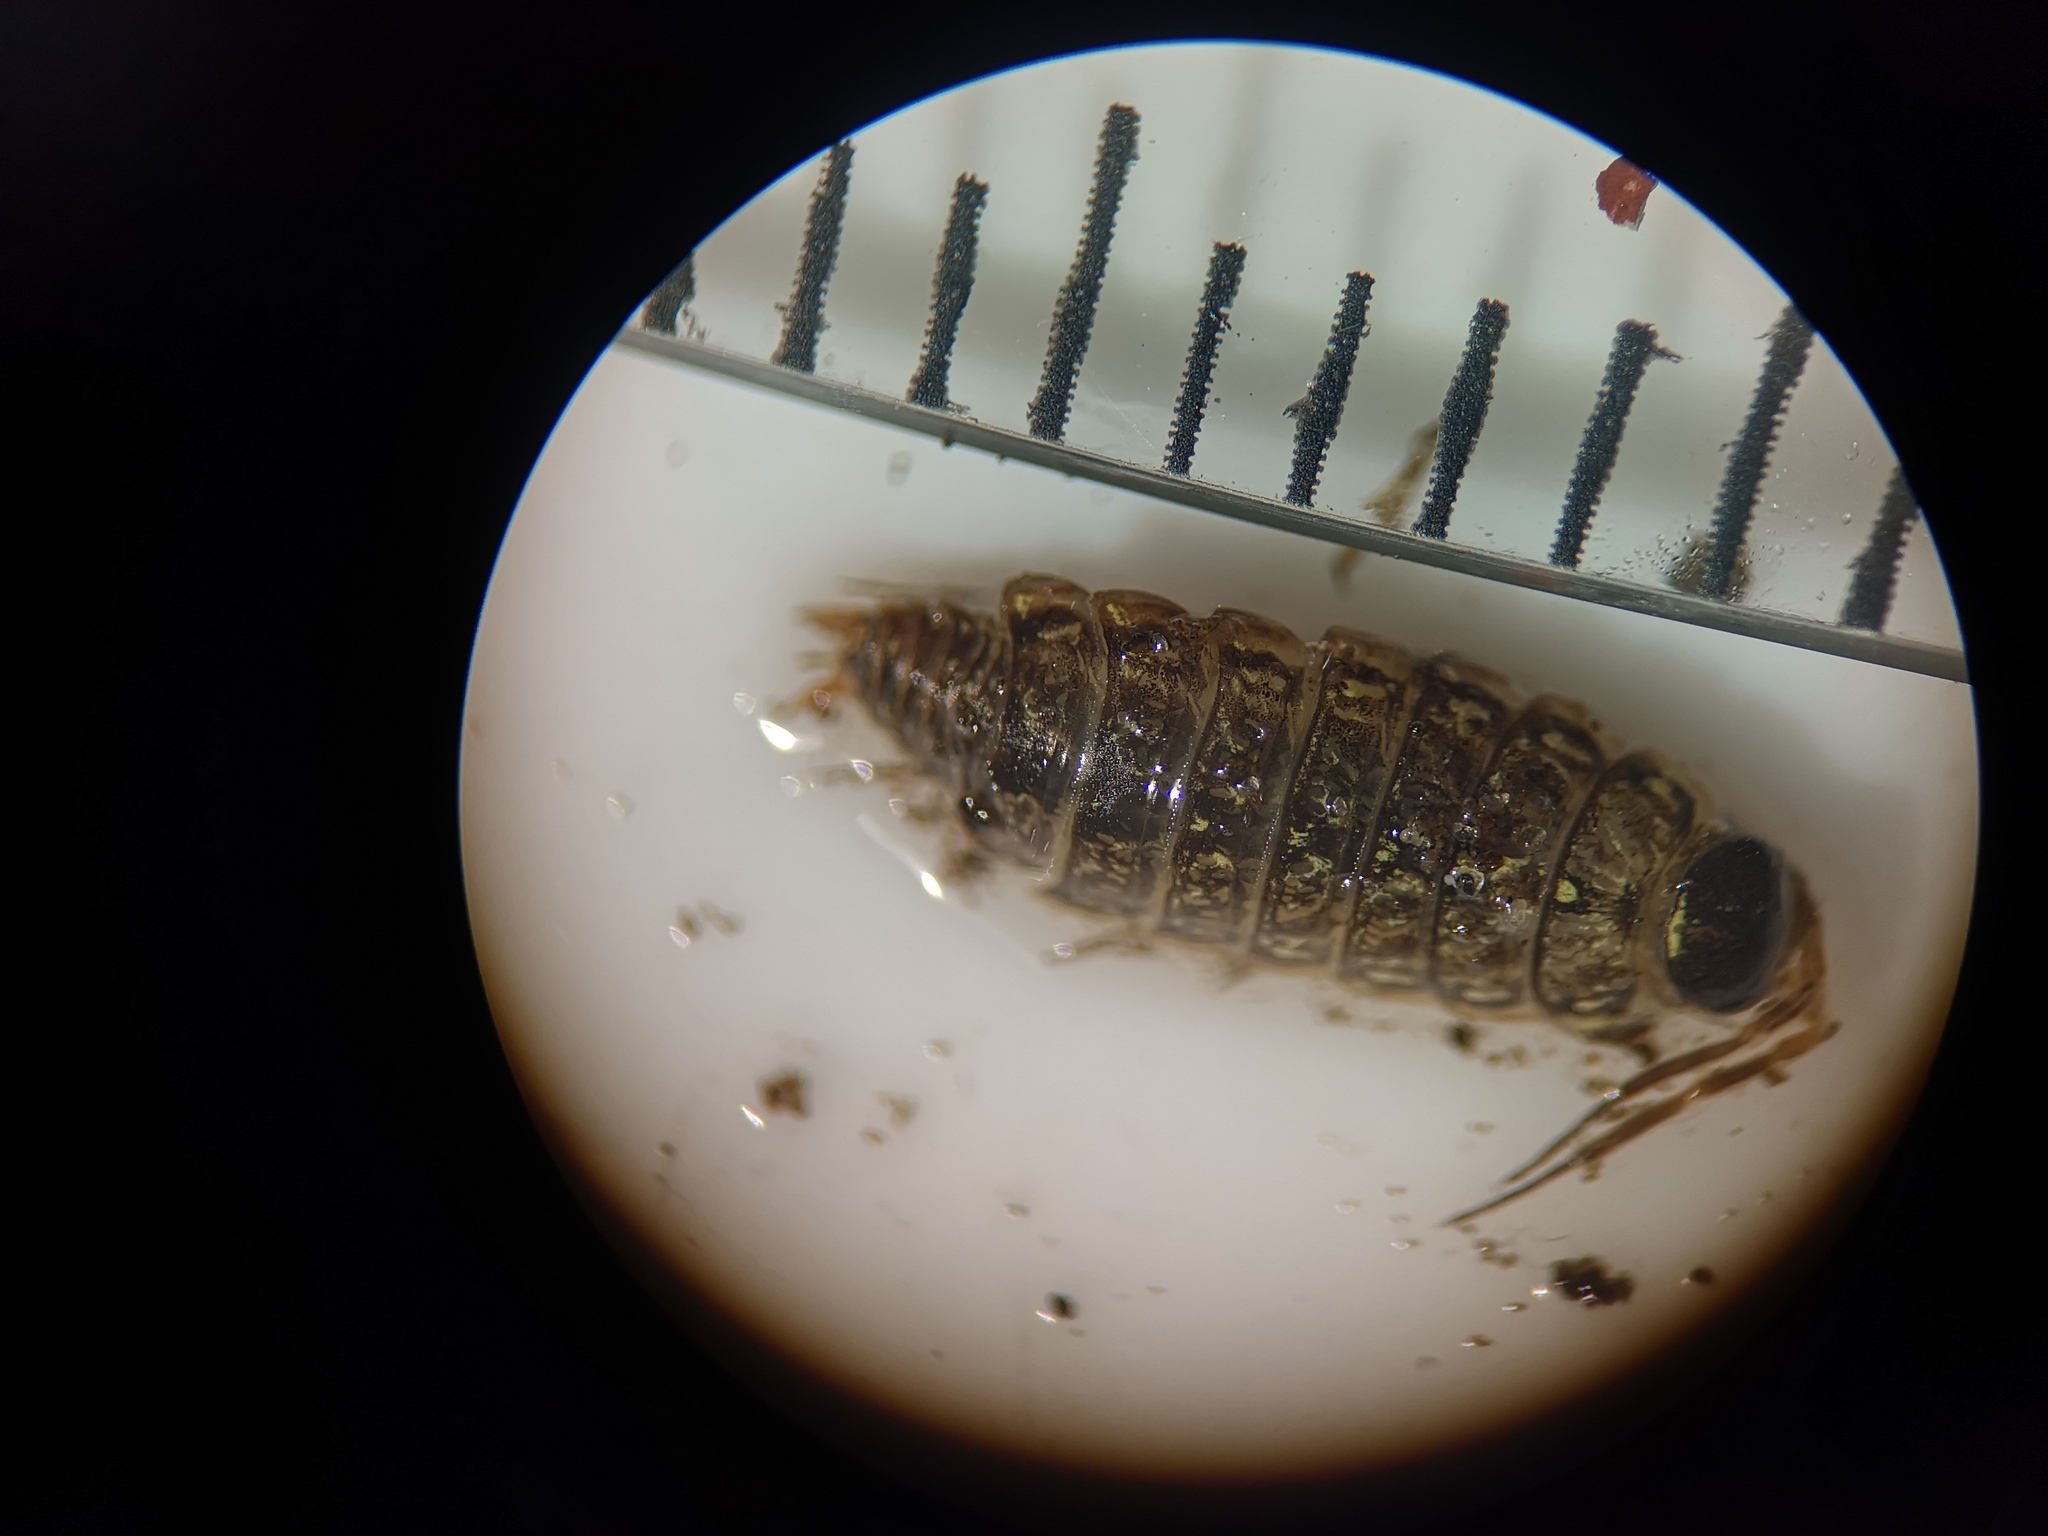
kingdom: Animalia
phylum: Arthropoda
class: Malacostraca
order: Isopoda
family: Philosciidae
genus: Philoscia
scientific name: Philoscia muscorum
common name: Common striped woodlouse
